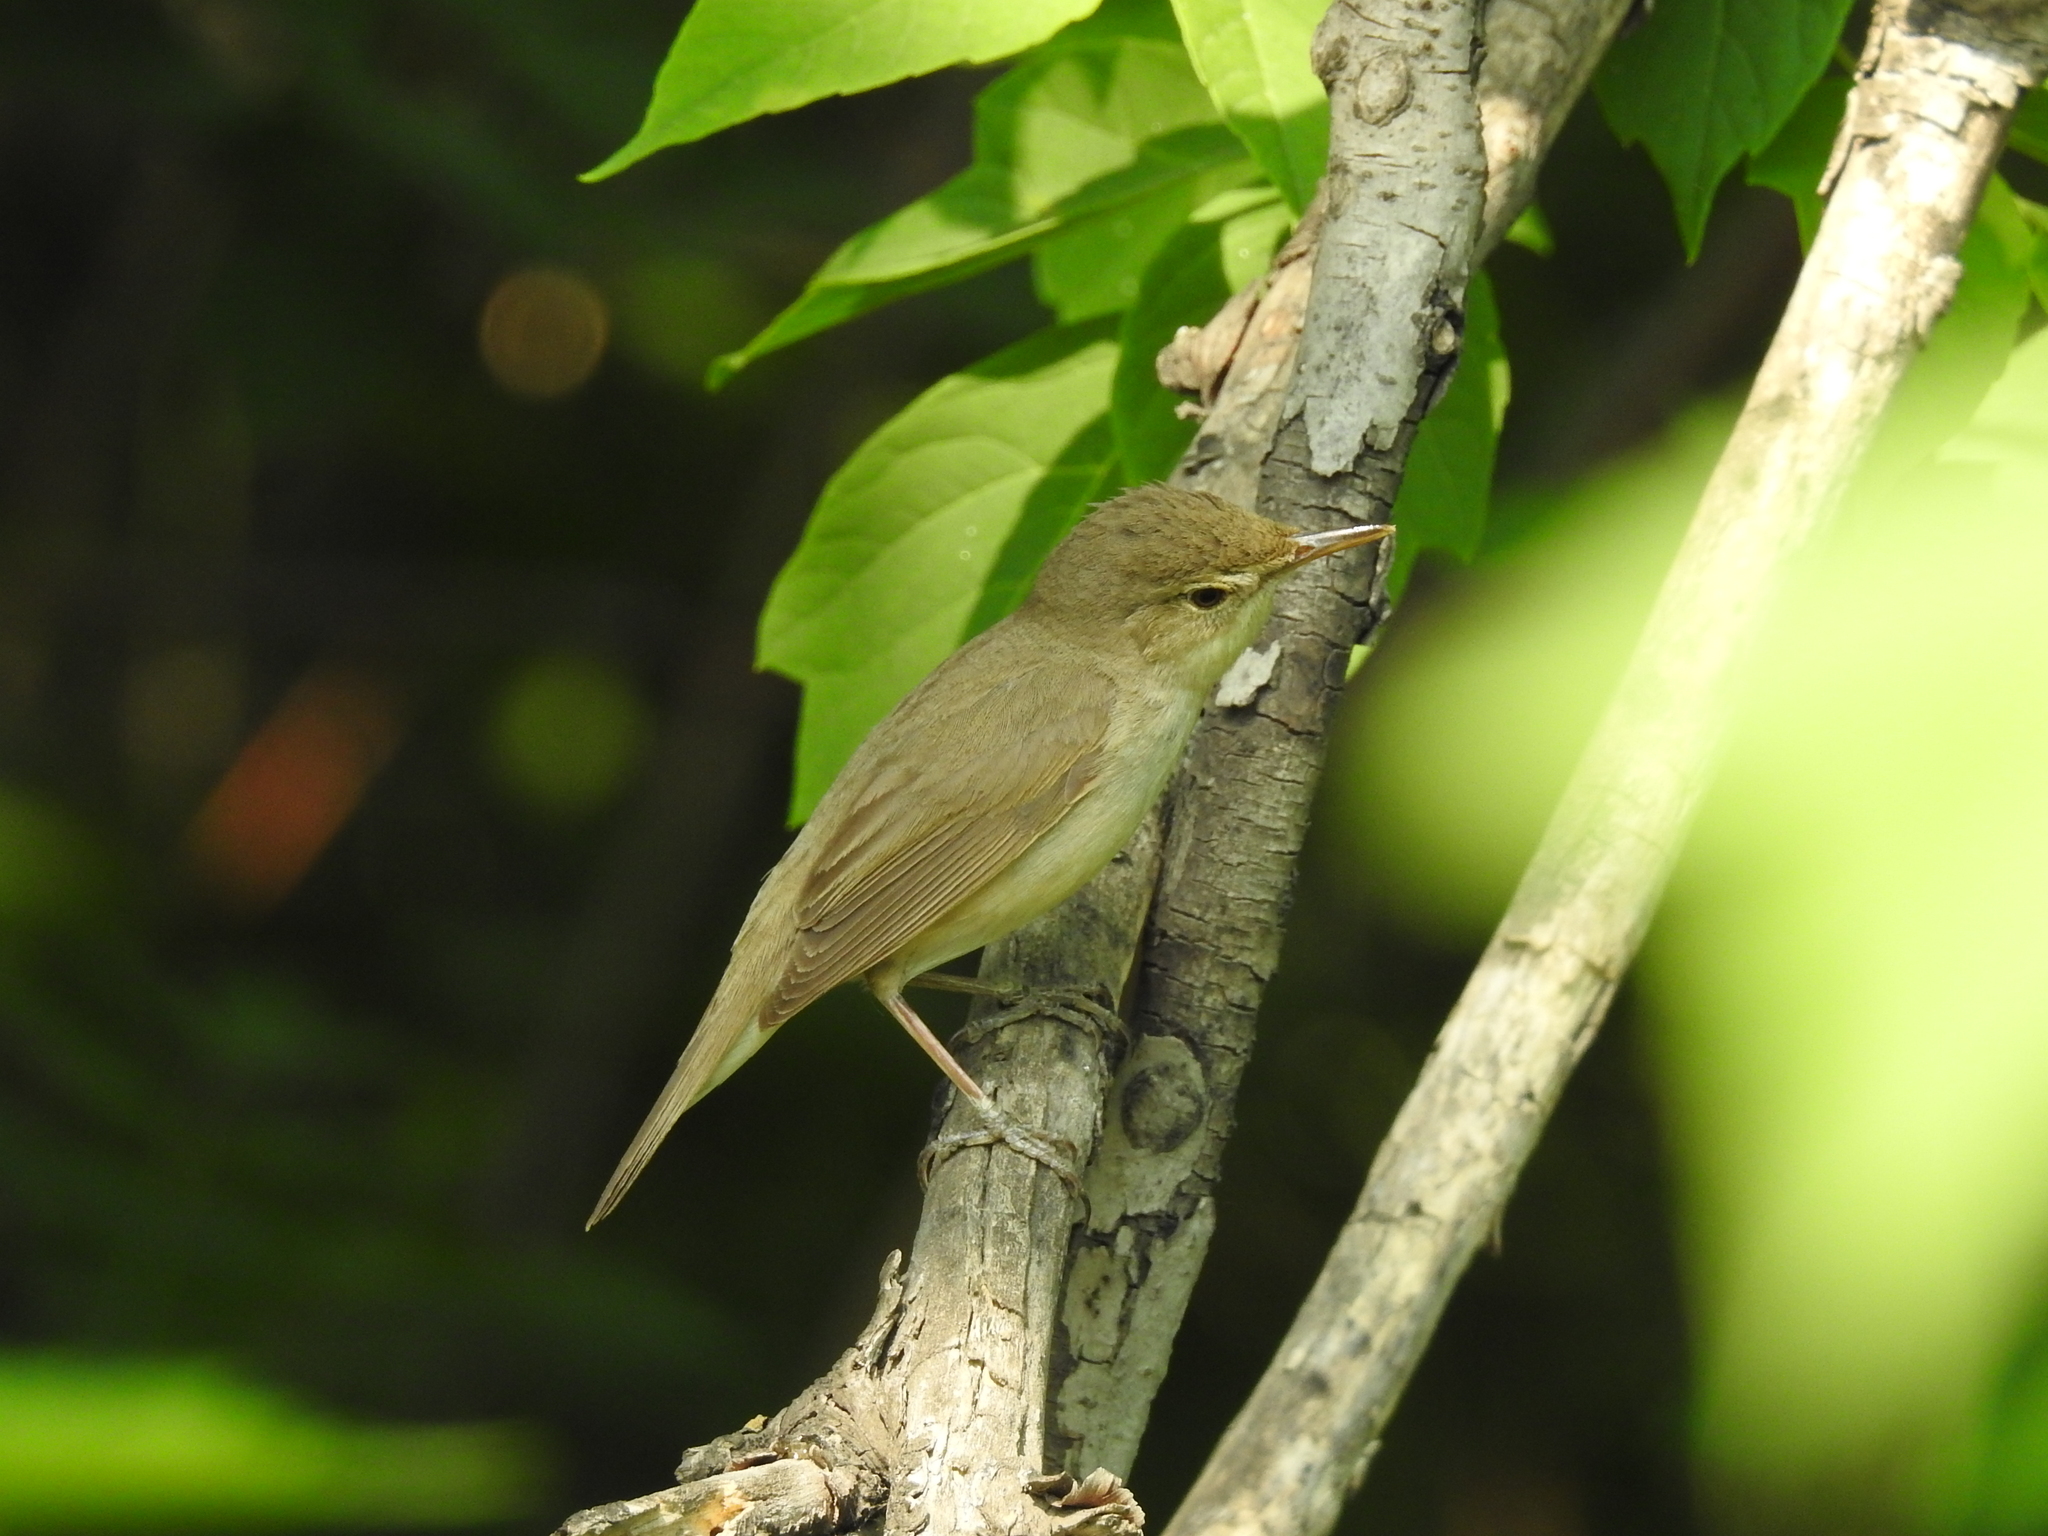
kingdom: Animalia
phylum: Chordata
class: Aves
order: Passeriformes
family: Acrocephalidae
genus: Acrocephalus
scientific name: Acrocephalus dumetorum
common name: Blyth's reed warbler
